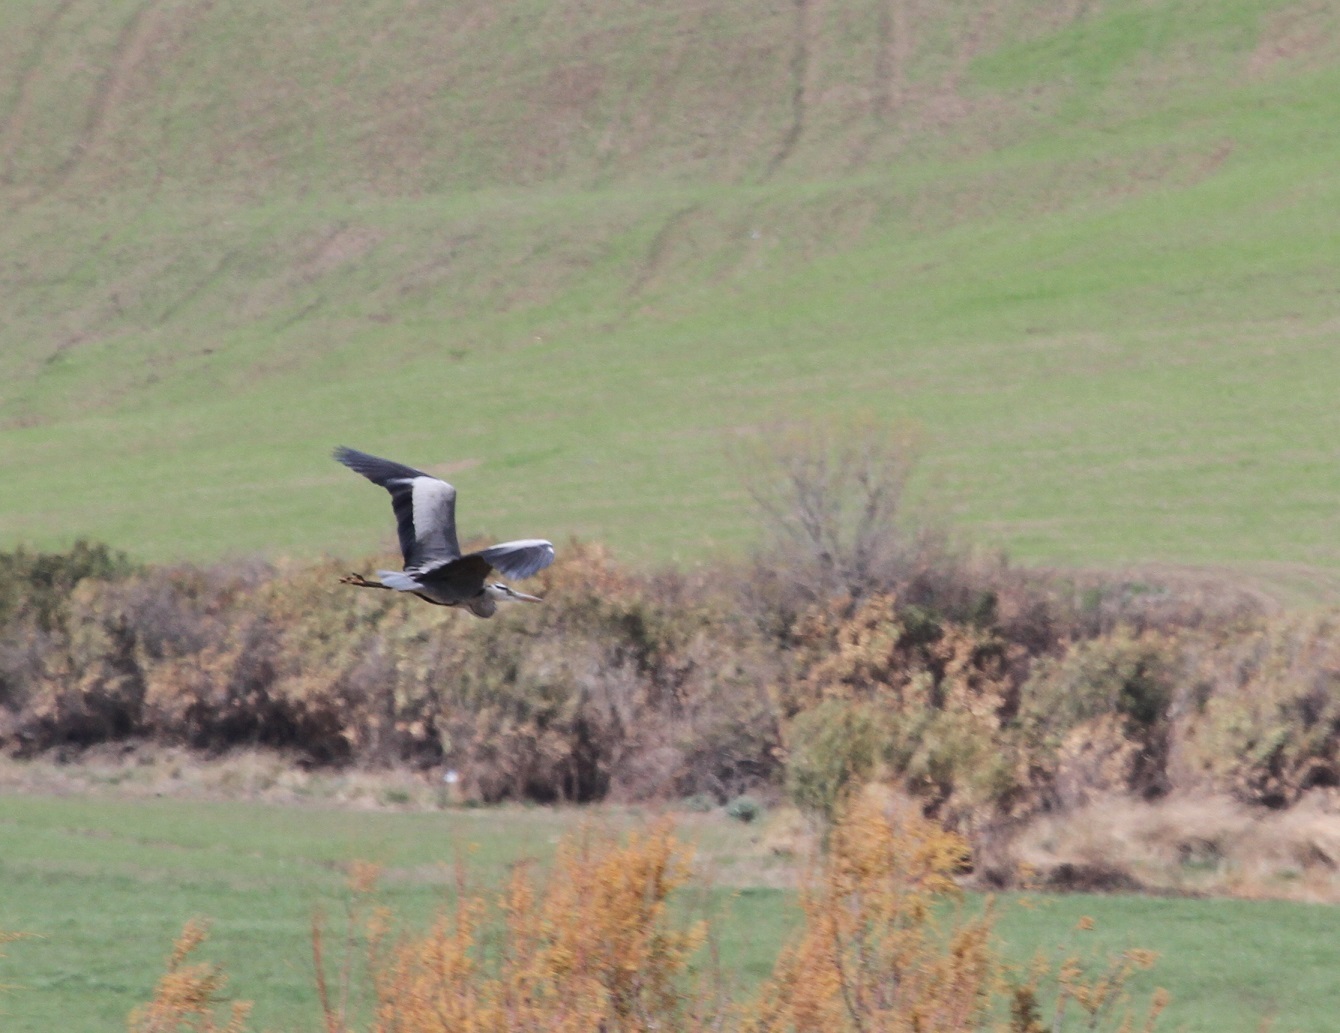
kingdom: Animalia
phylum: Chordata
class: Aves
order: Pelecaniformes
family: Ardeidae
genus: Ardea
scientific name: Ardea cinerea
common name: Grey heron
